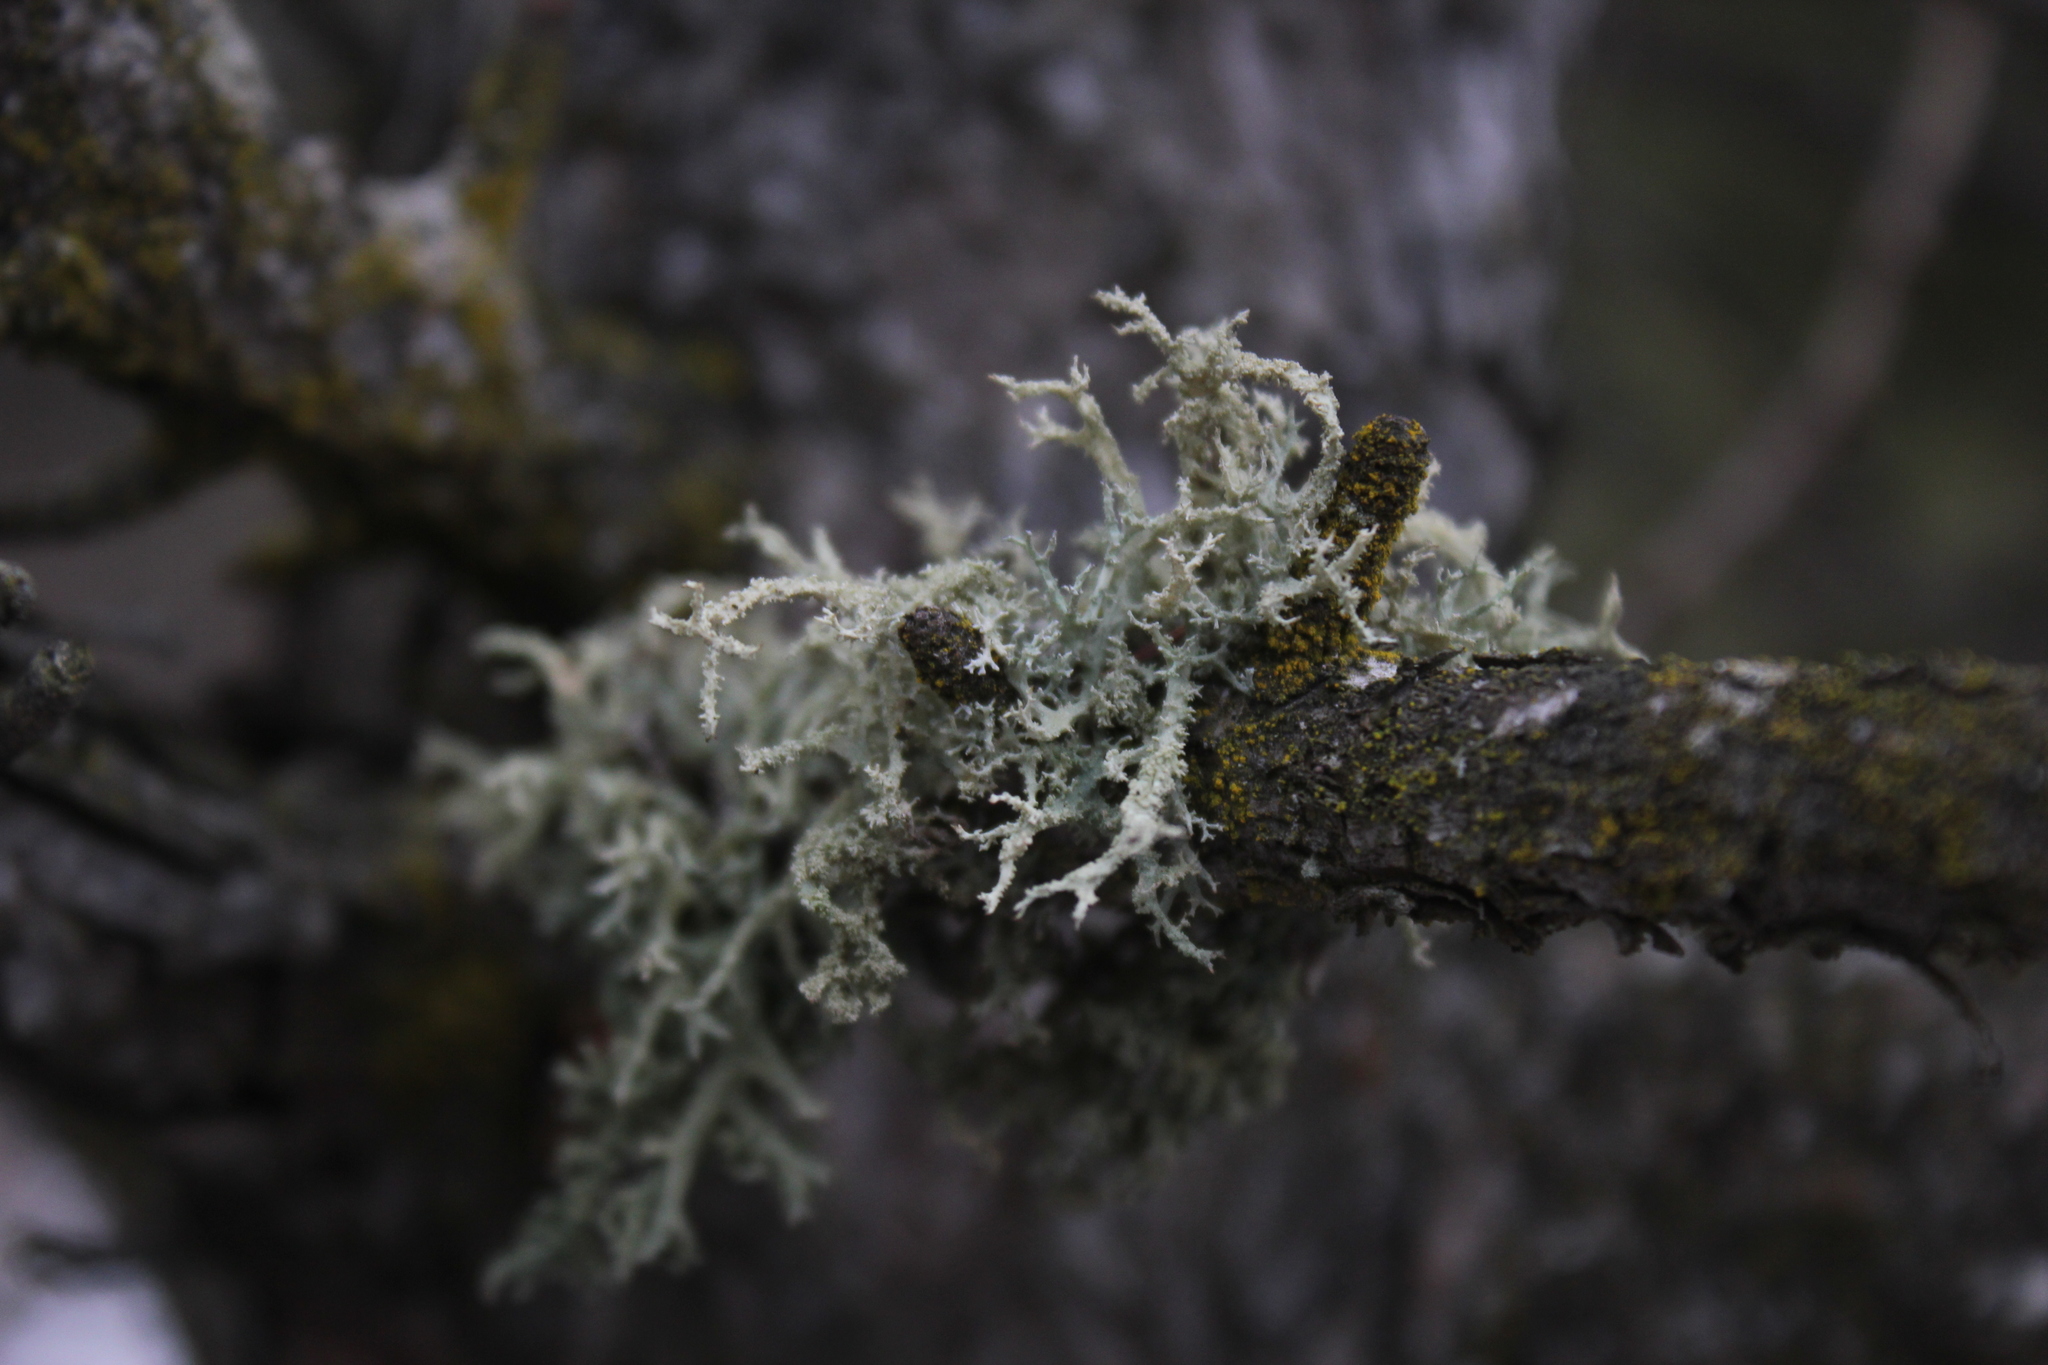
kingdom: Fungi
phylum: Ascomycota
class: Lecanoromycetes
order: Lecanorales
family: Parmeliaceae
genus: Evernia
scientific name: Evernia mesomorpha
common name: Boreal oak moss lichen
